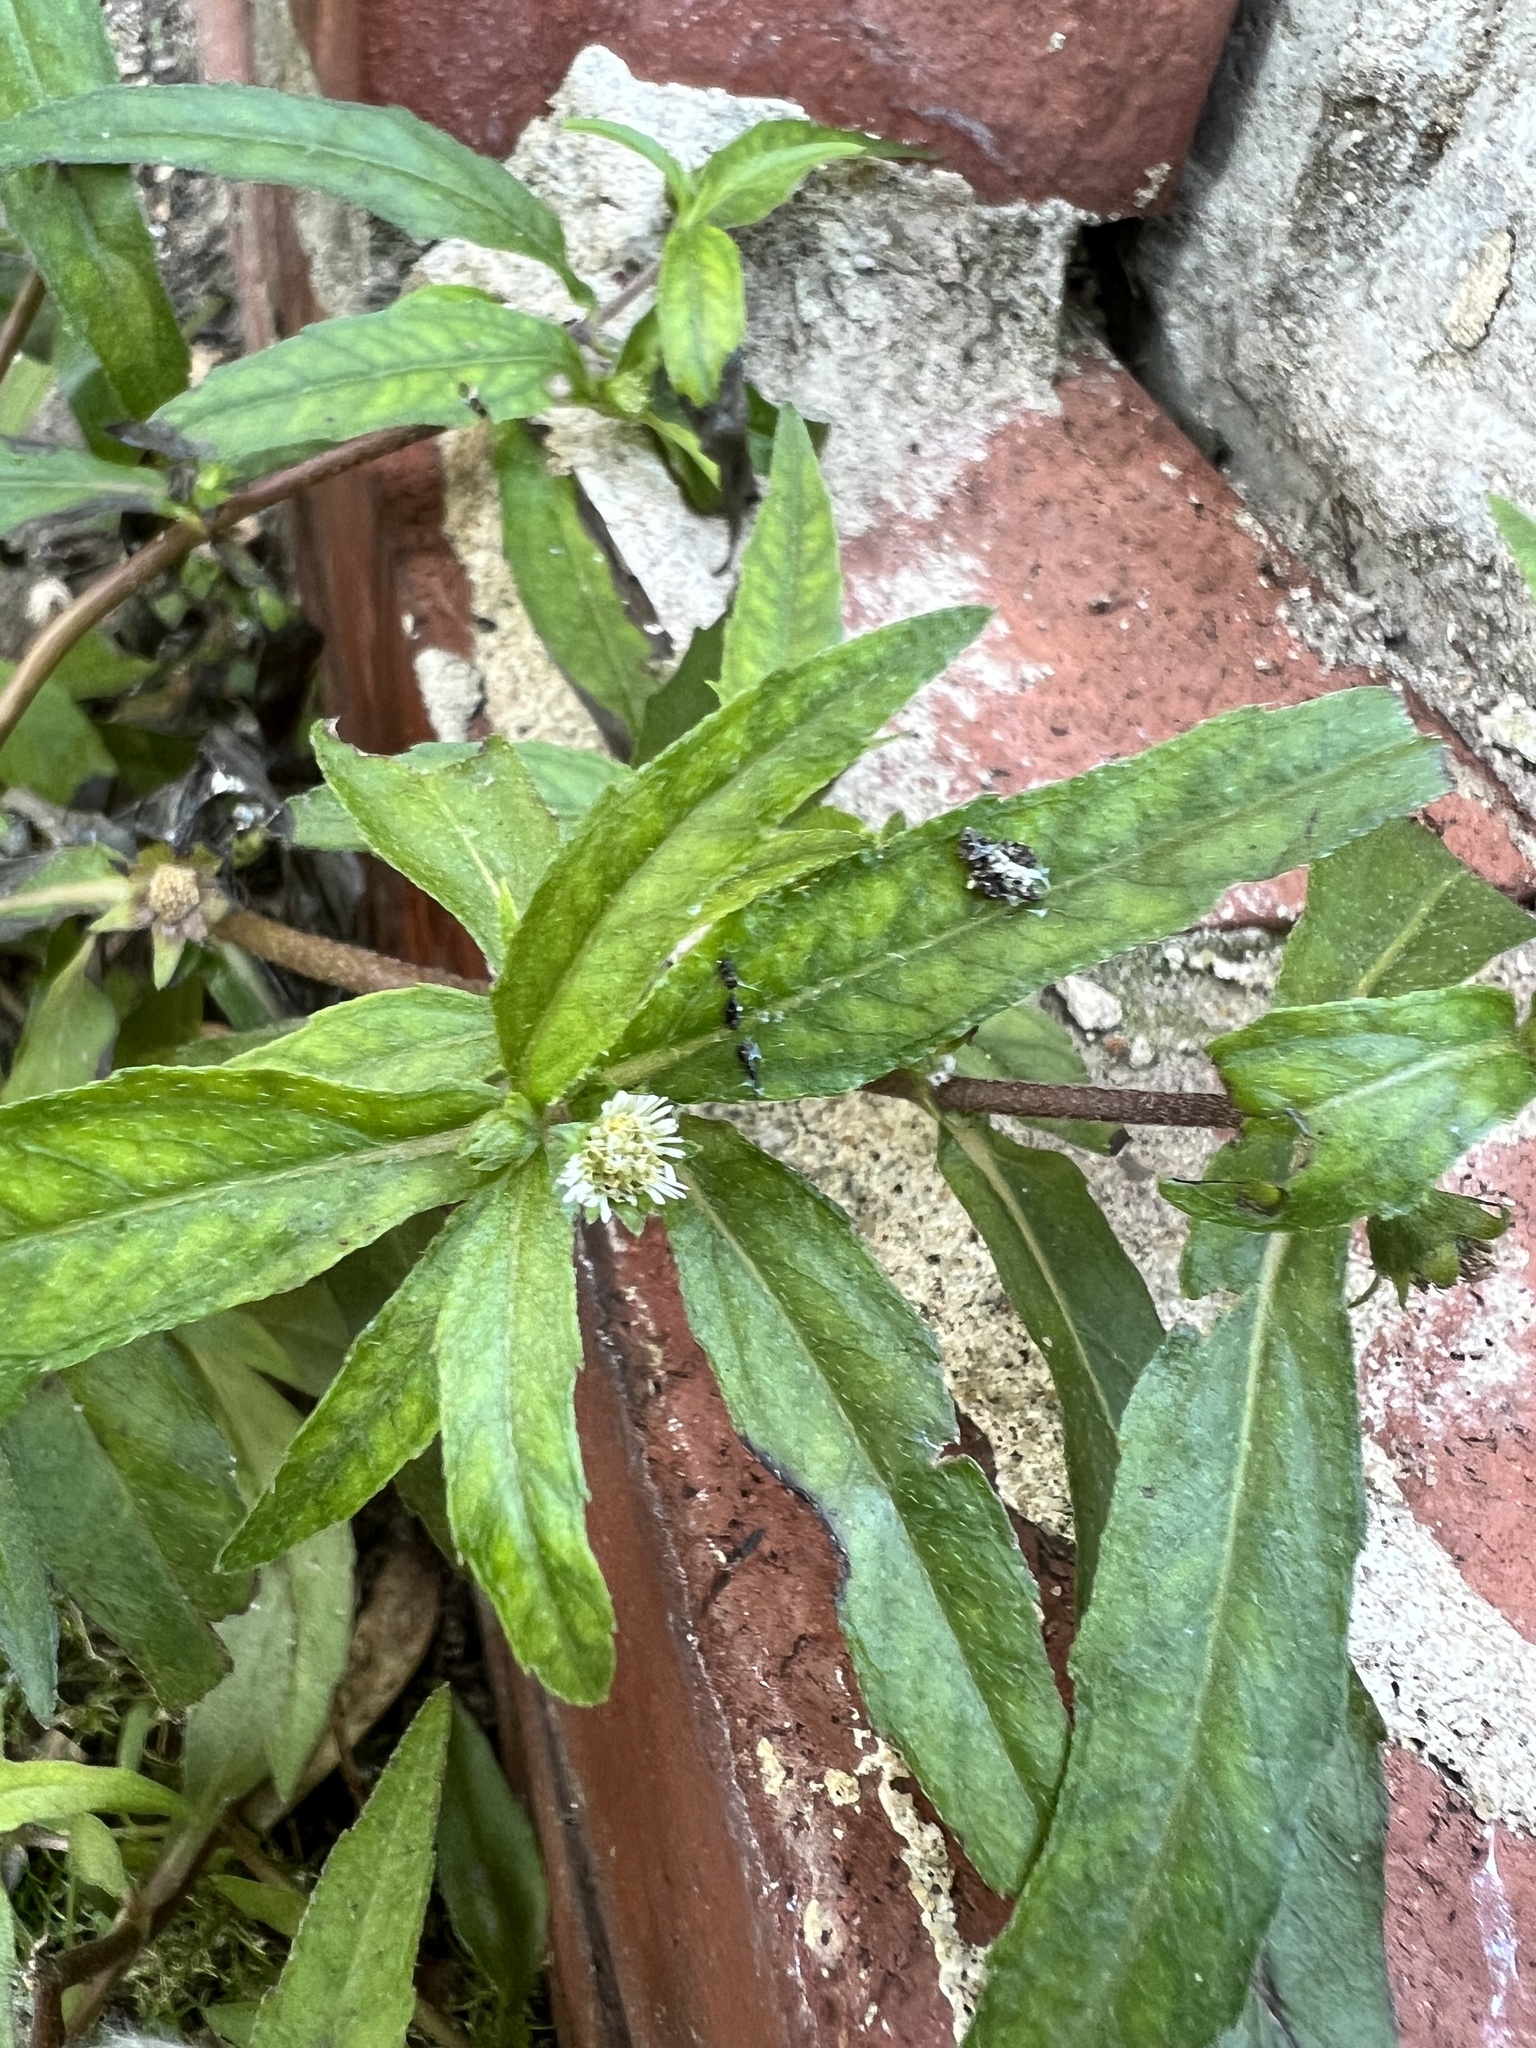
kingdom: Plantae
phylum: Tracheophyta
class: Magnoliopsida
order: Asterales
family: Asteraceae
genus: Eclipta
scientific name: Eclipta prostrata
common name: False daisy
